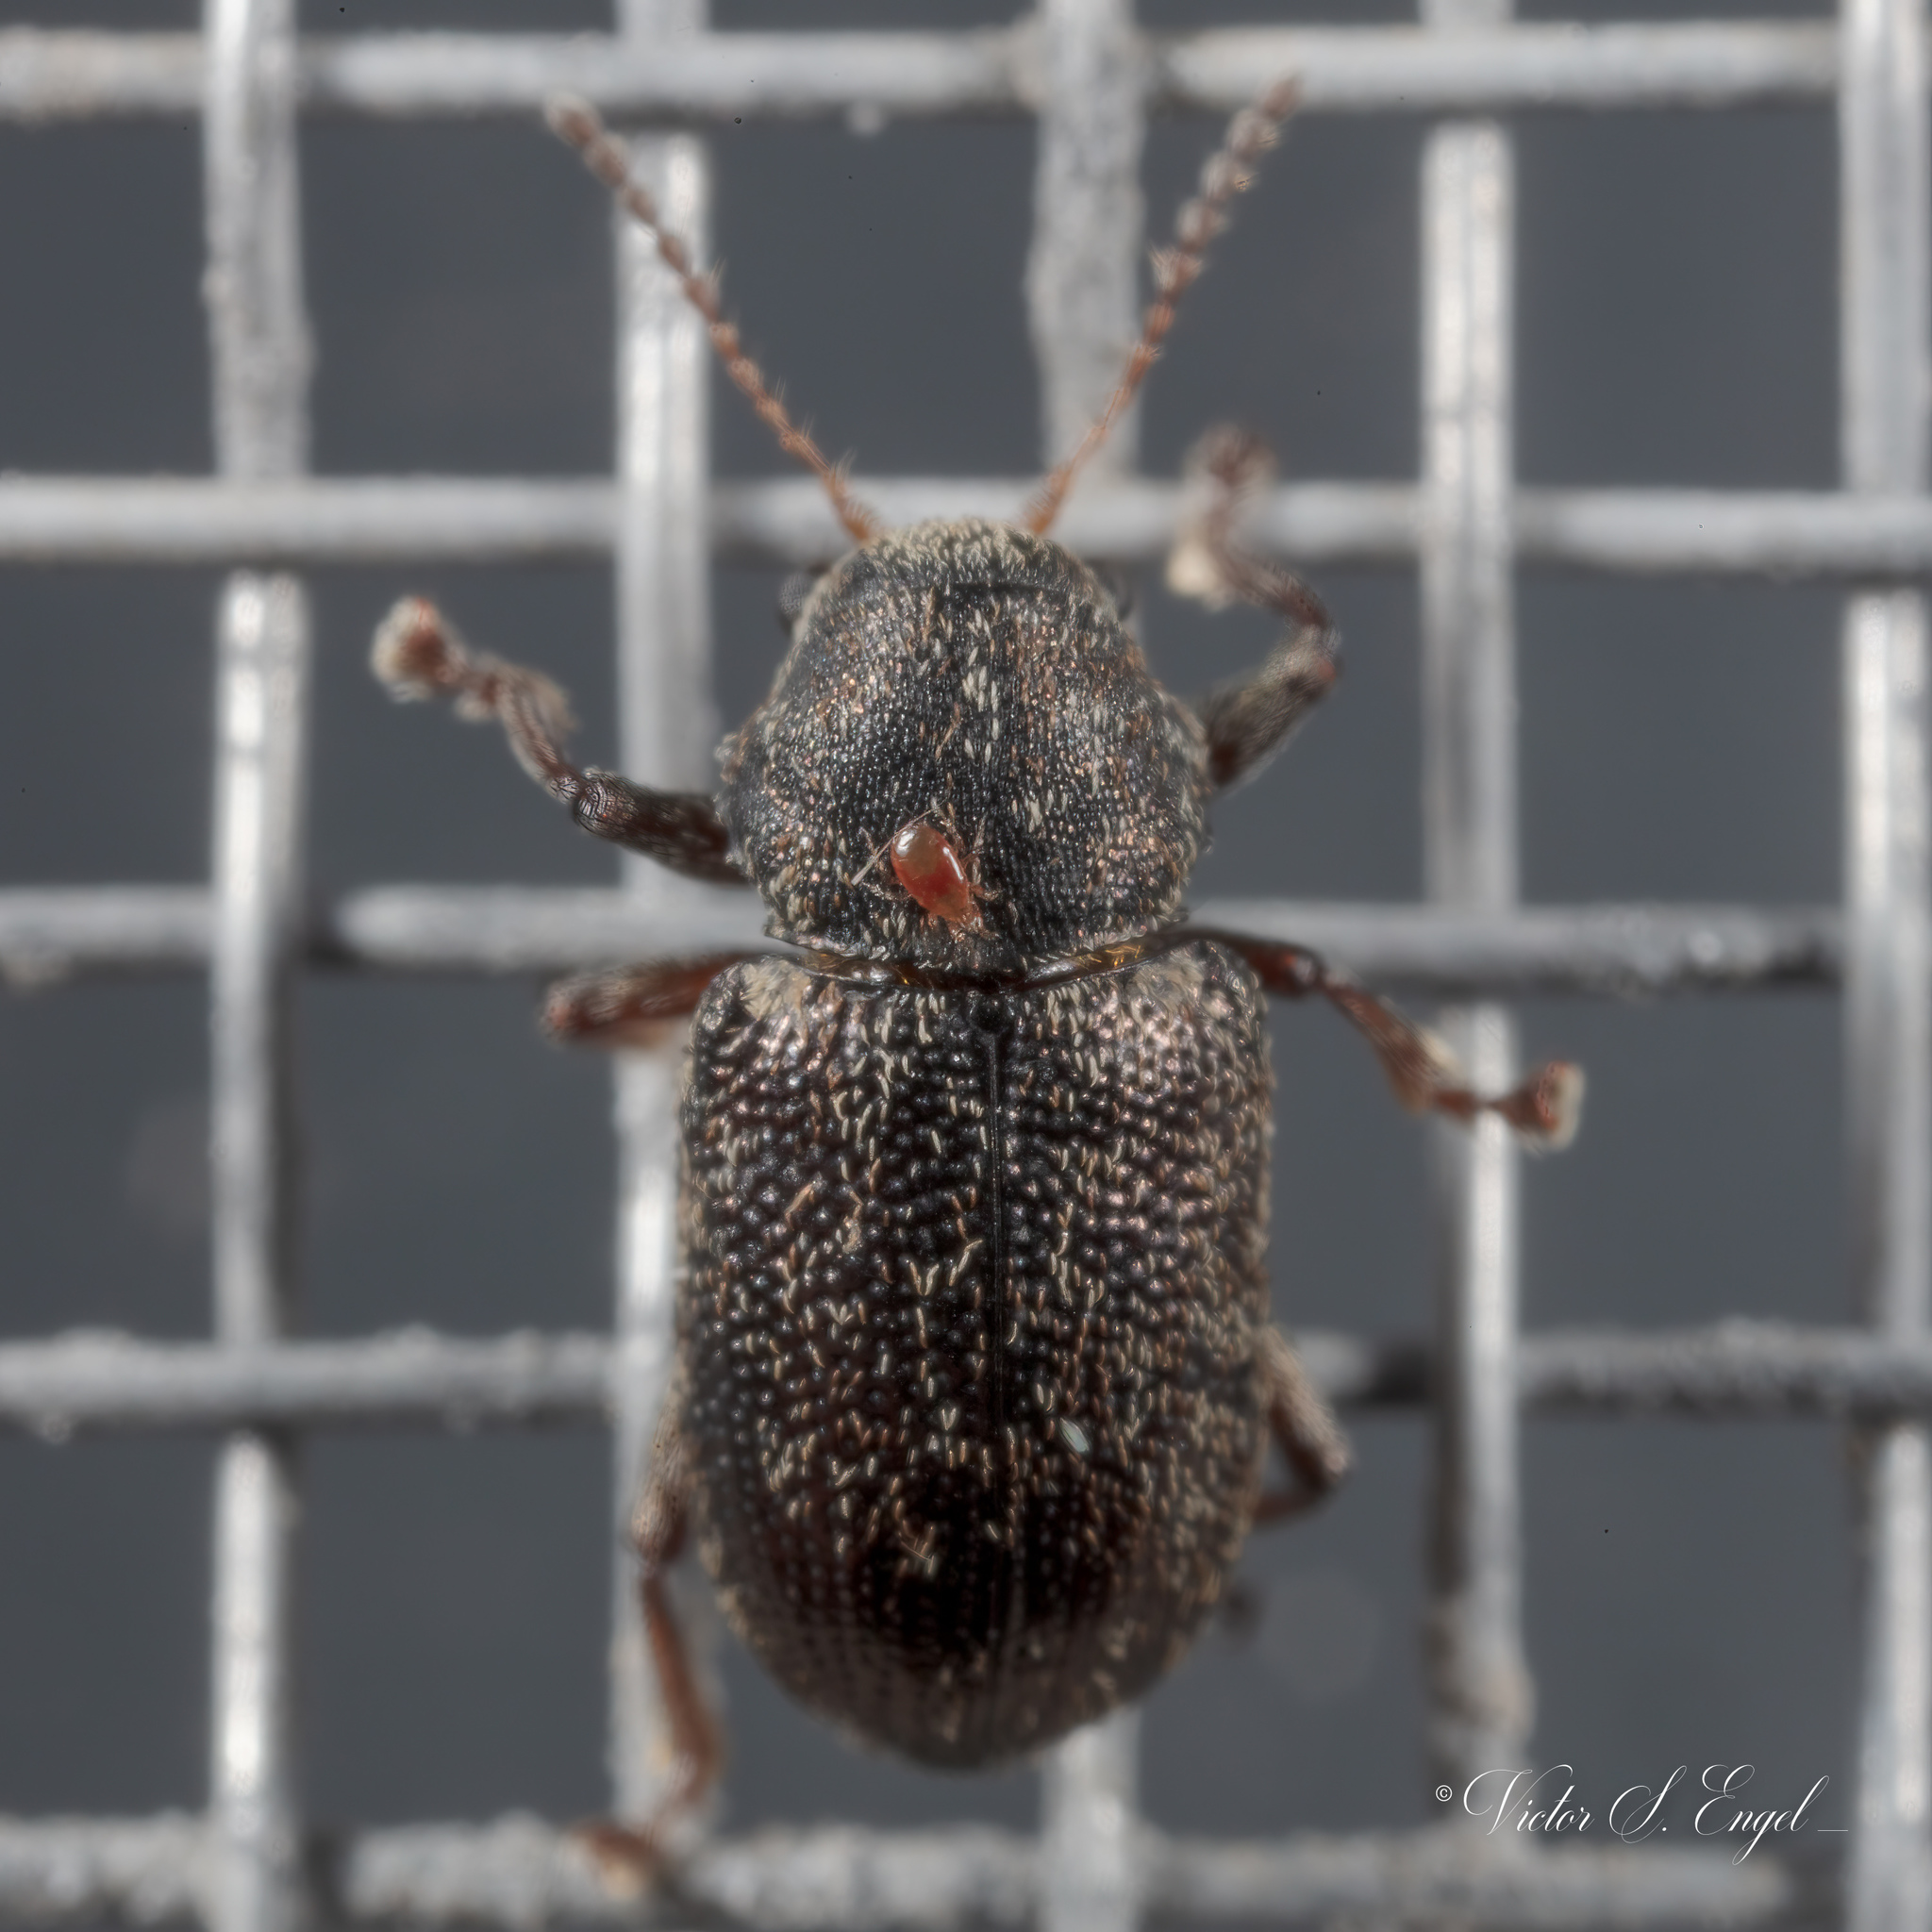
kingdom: Animalia
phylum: Arthropoda
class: Insecta
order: Coleoptera
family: Chrysomelidae
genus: Myochrous
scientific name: Myochrous
